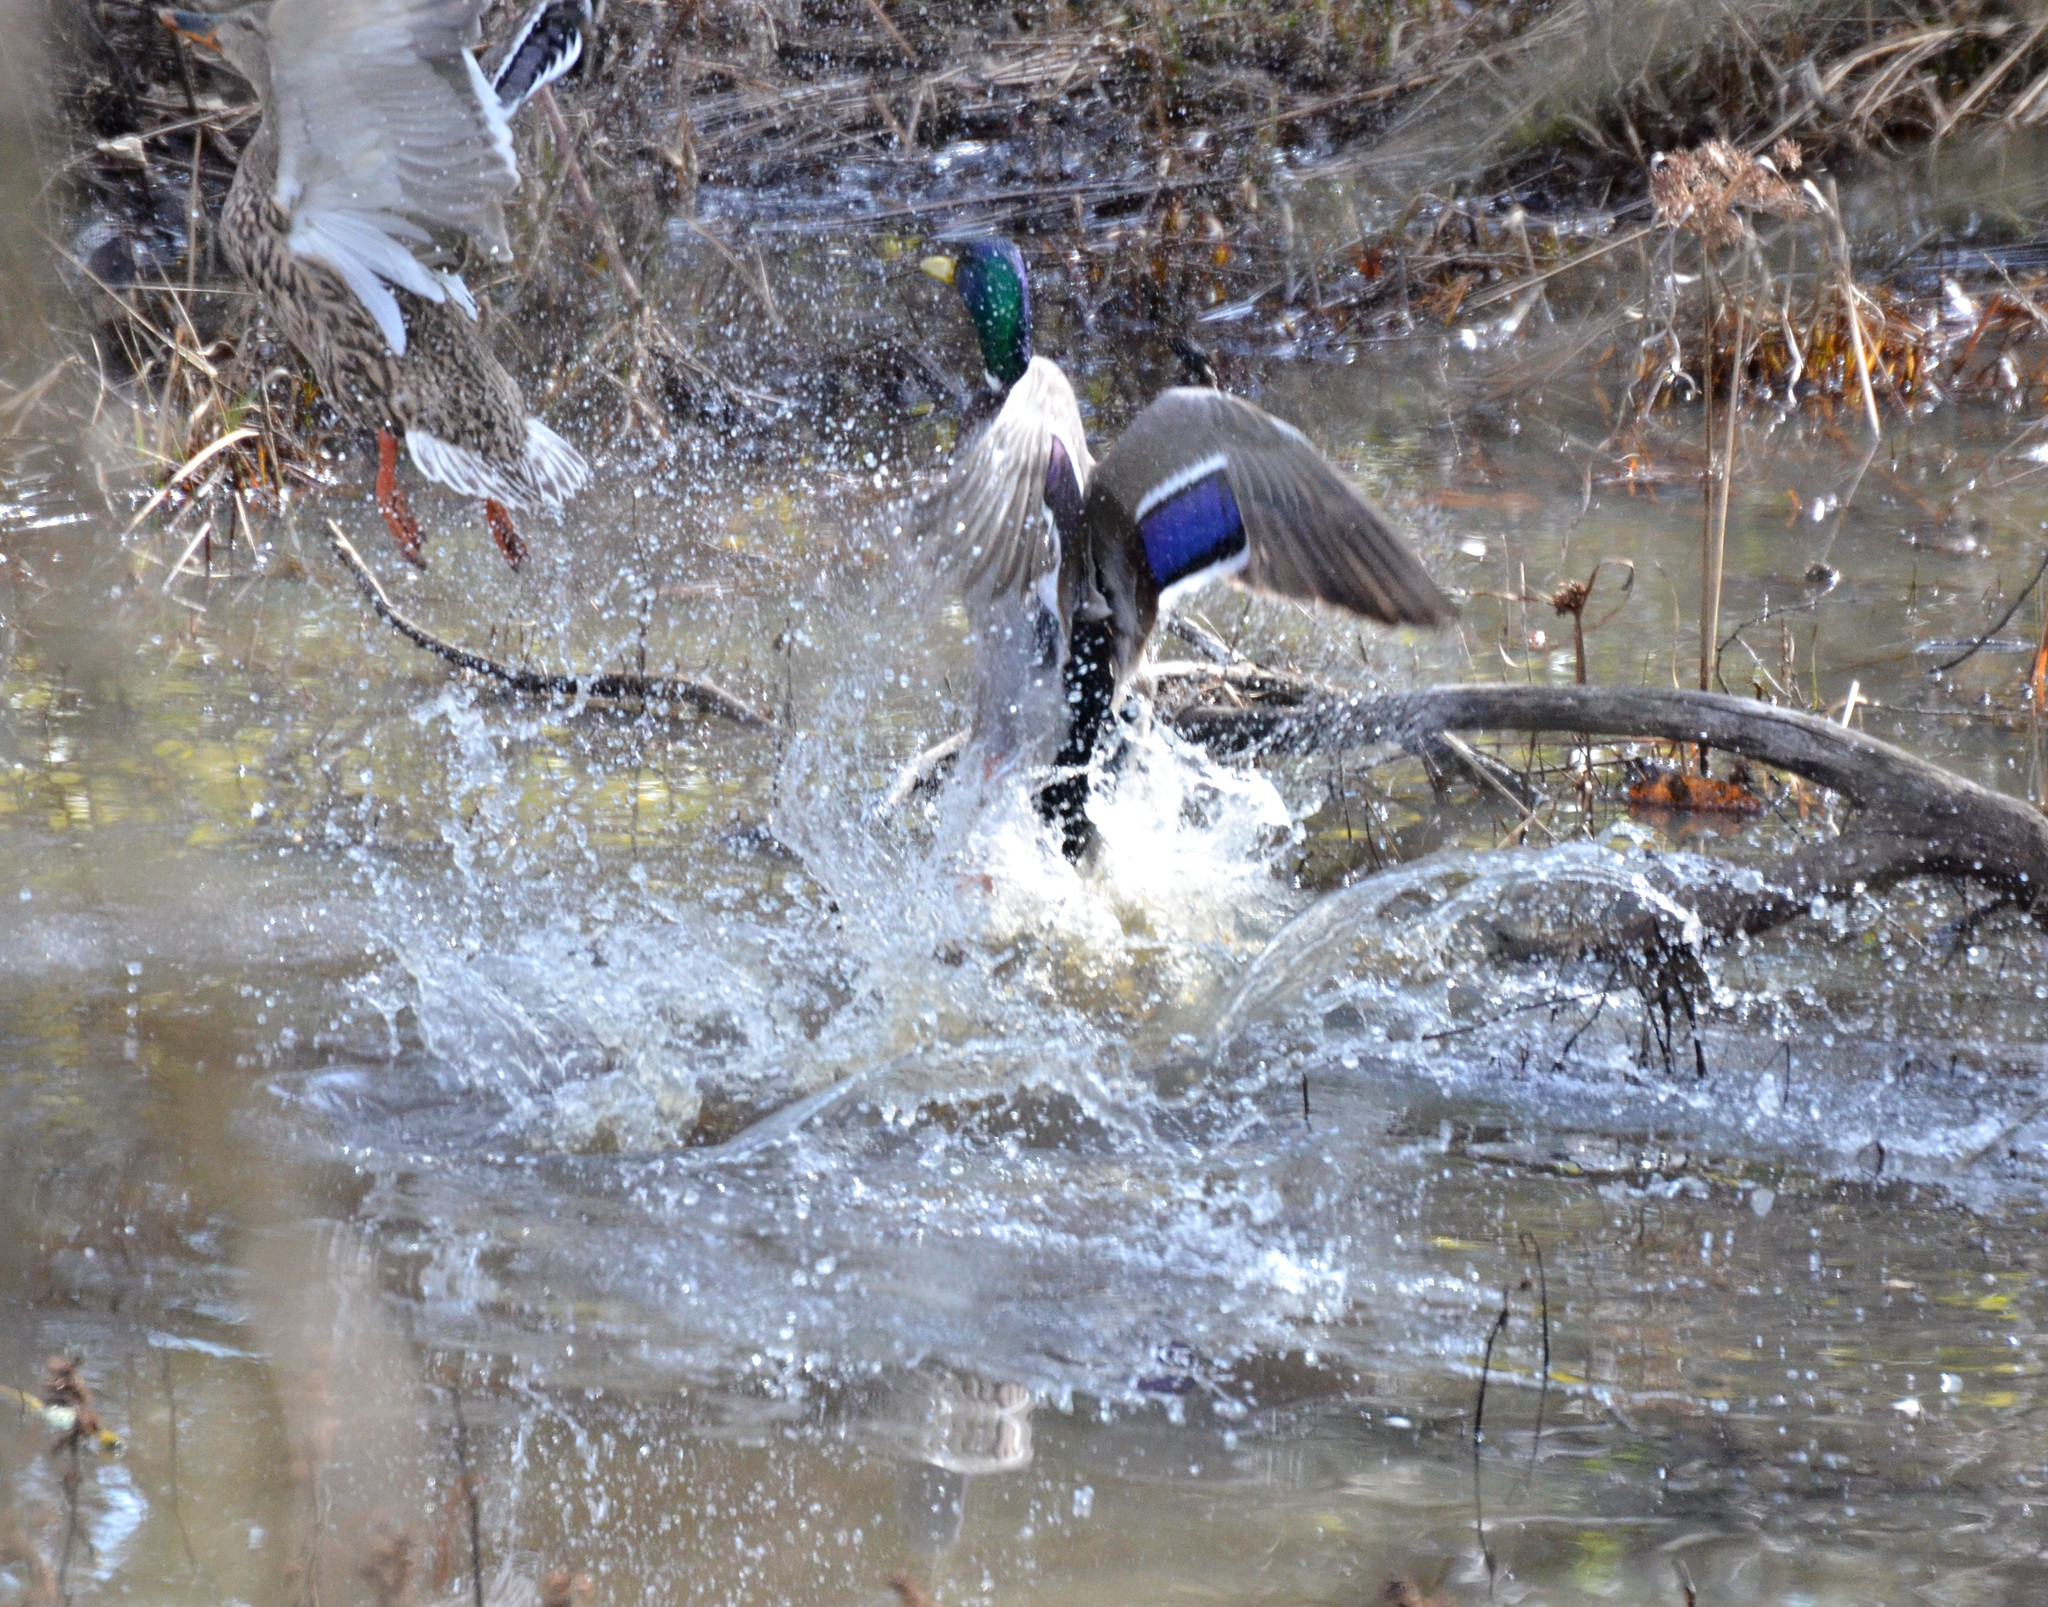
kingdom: Animalia
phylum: Chordata
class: Aves
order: Anseriformes
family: Anatidae
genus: Anas
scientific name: Anas platyrhynchos
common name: Mallard
